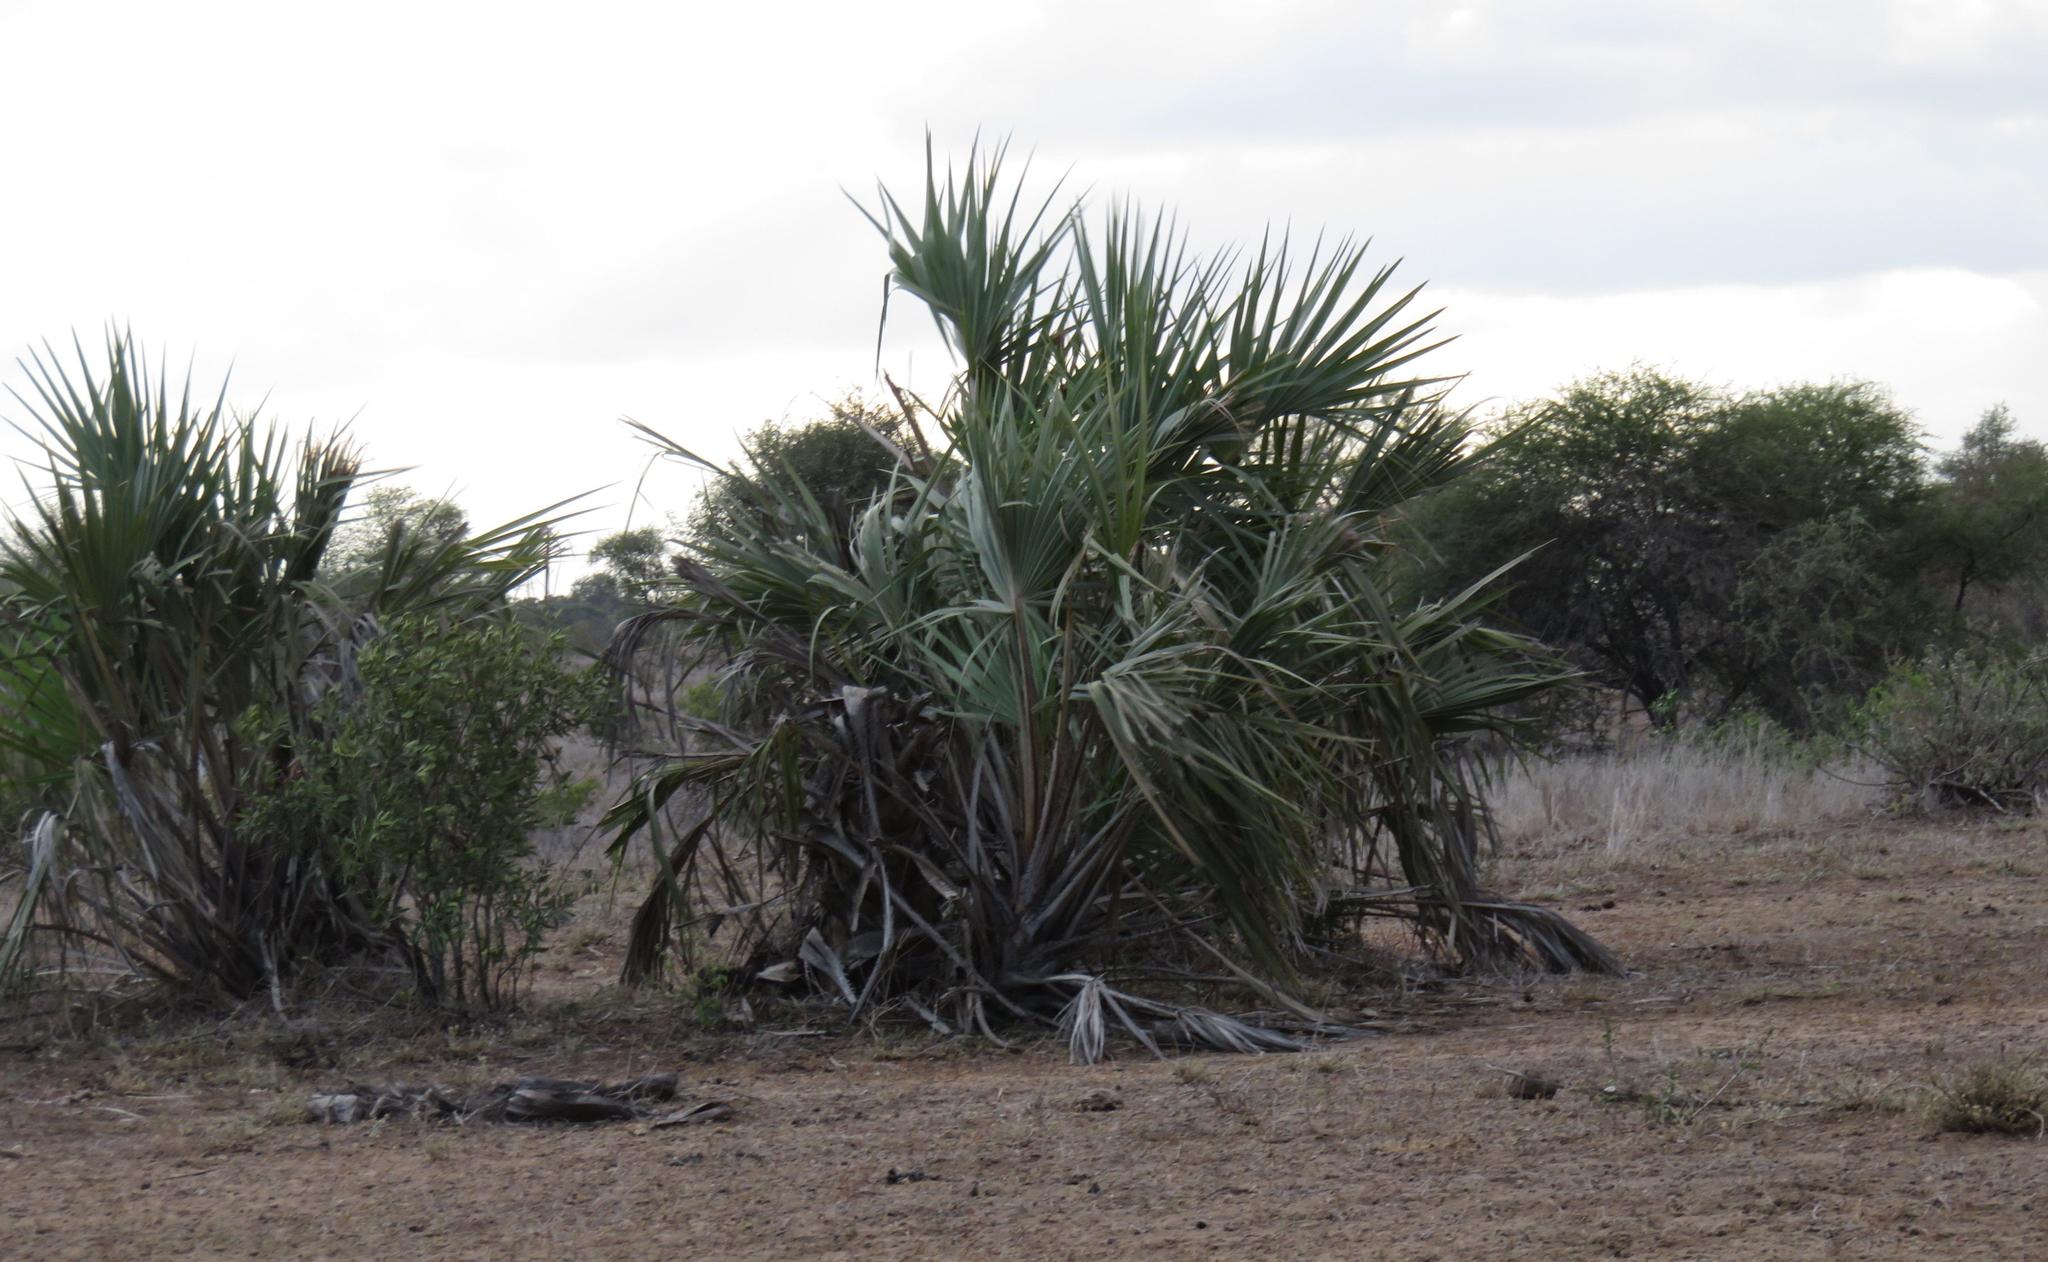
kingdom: Plantae
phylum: Tracheophyta
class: Liliopsida
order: Arecales
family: Arecaceae
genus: Hyphaene
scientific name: Hyphaene coriacea
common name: Ilala palm
